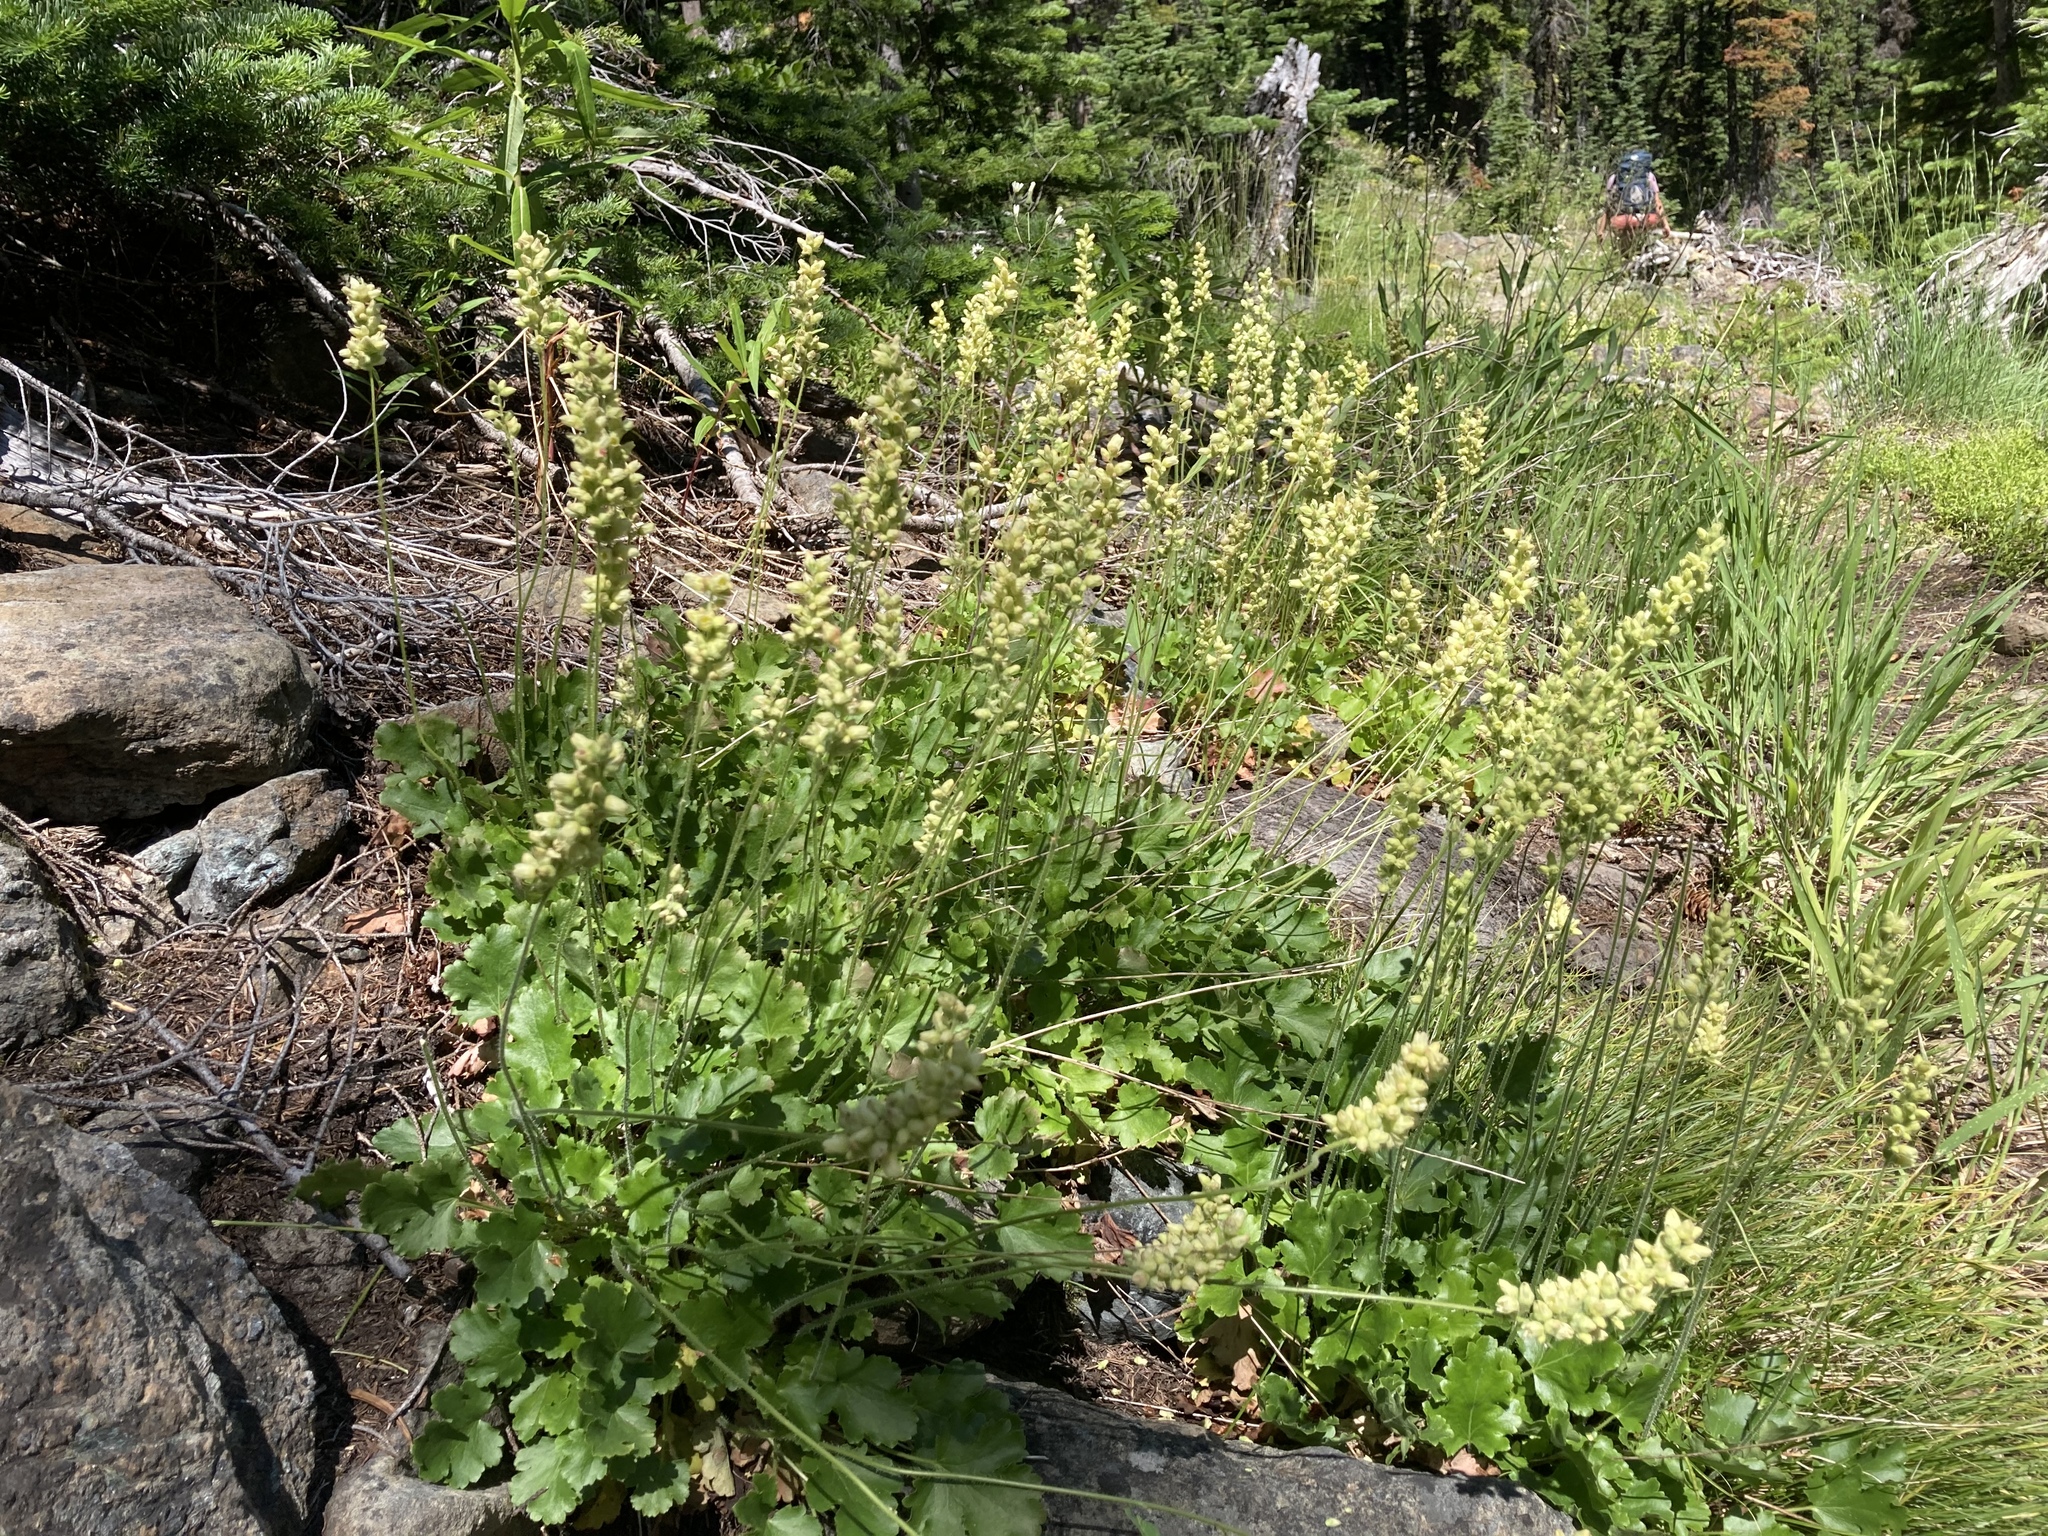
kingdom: Plantae
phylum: Tracheophyta
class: Magnoliopsida
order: Saxifragales
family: Saxifragaceae
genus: Heuchera
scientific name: Heuchera cylindrica
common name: Mat alumroot
